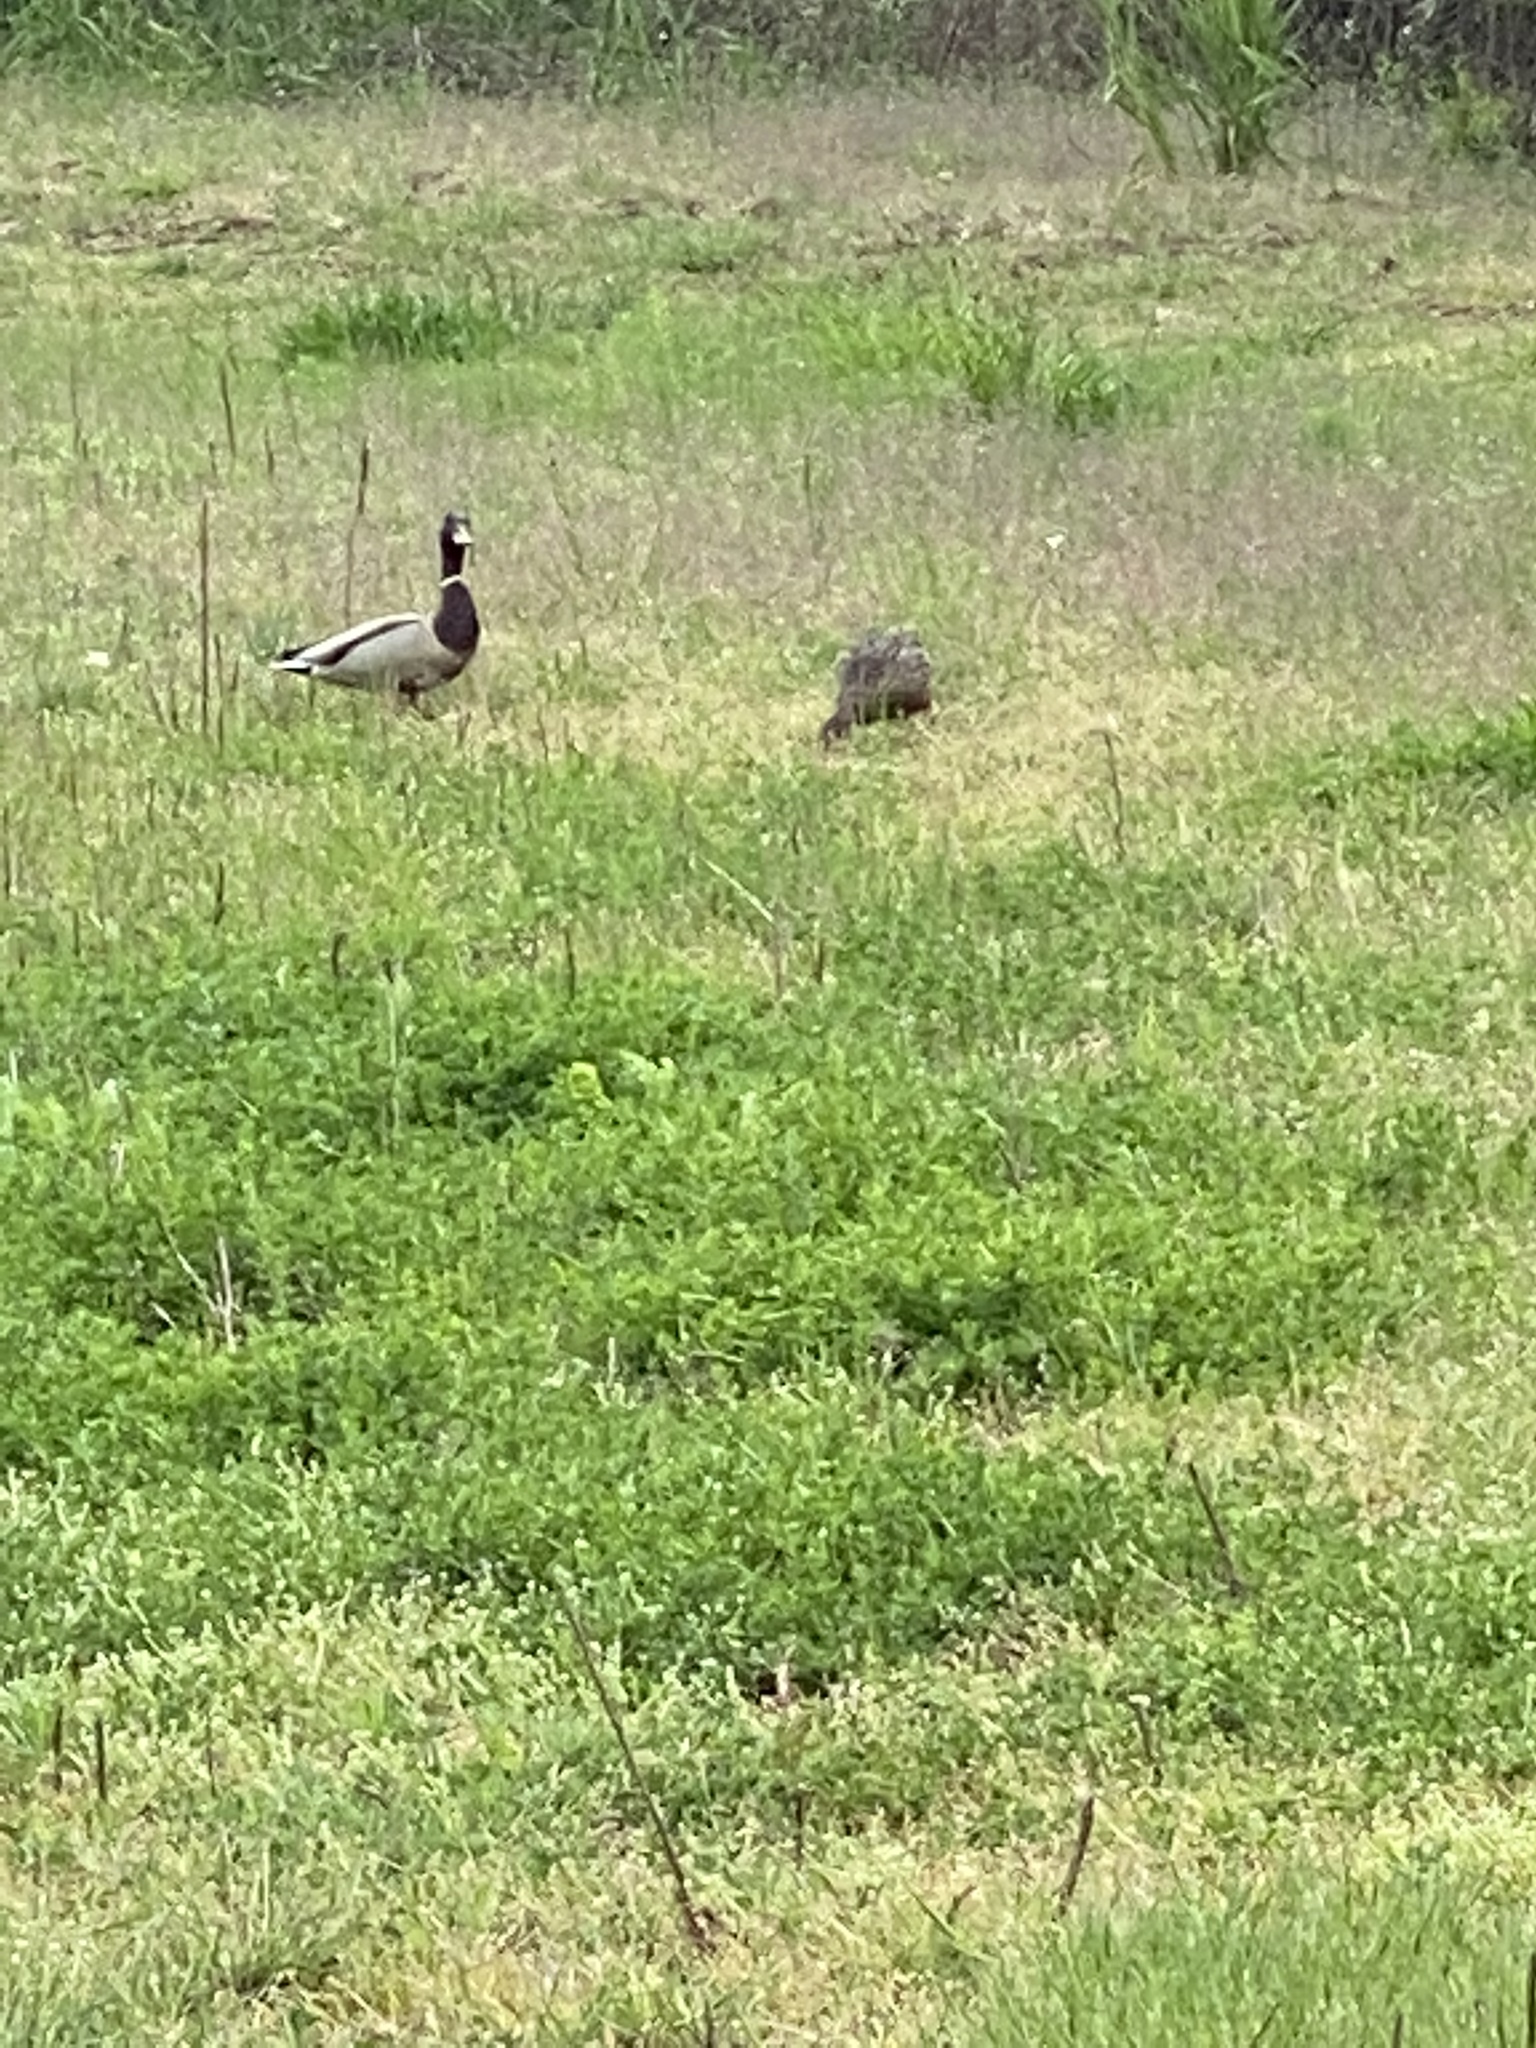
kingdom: Animalia
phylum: Chordata
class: Aves
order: Anseriformes
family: Anatidae
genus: Anas
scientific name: Anas platyrhynchos
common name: Mallard
